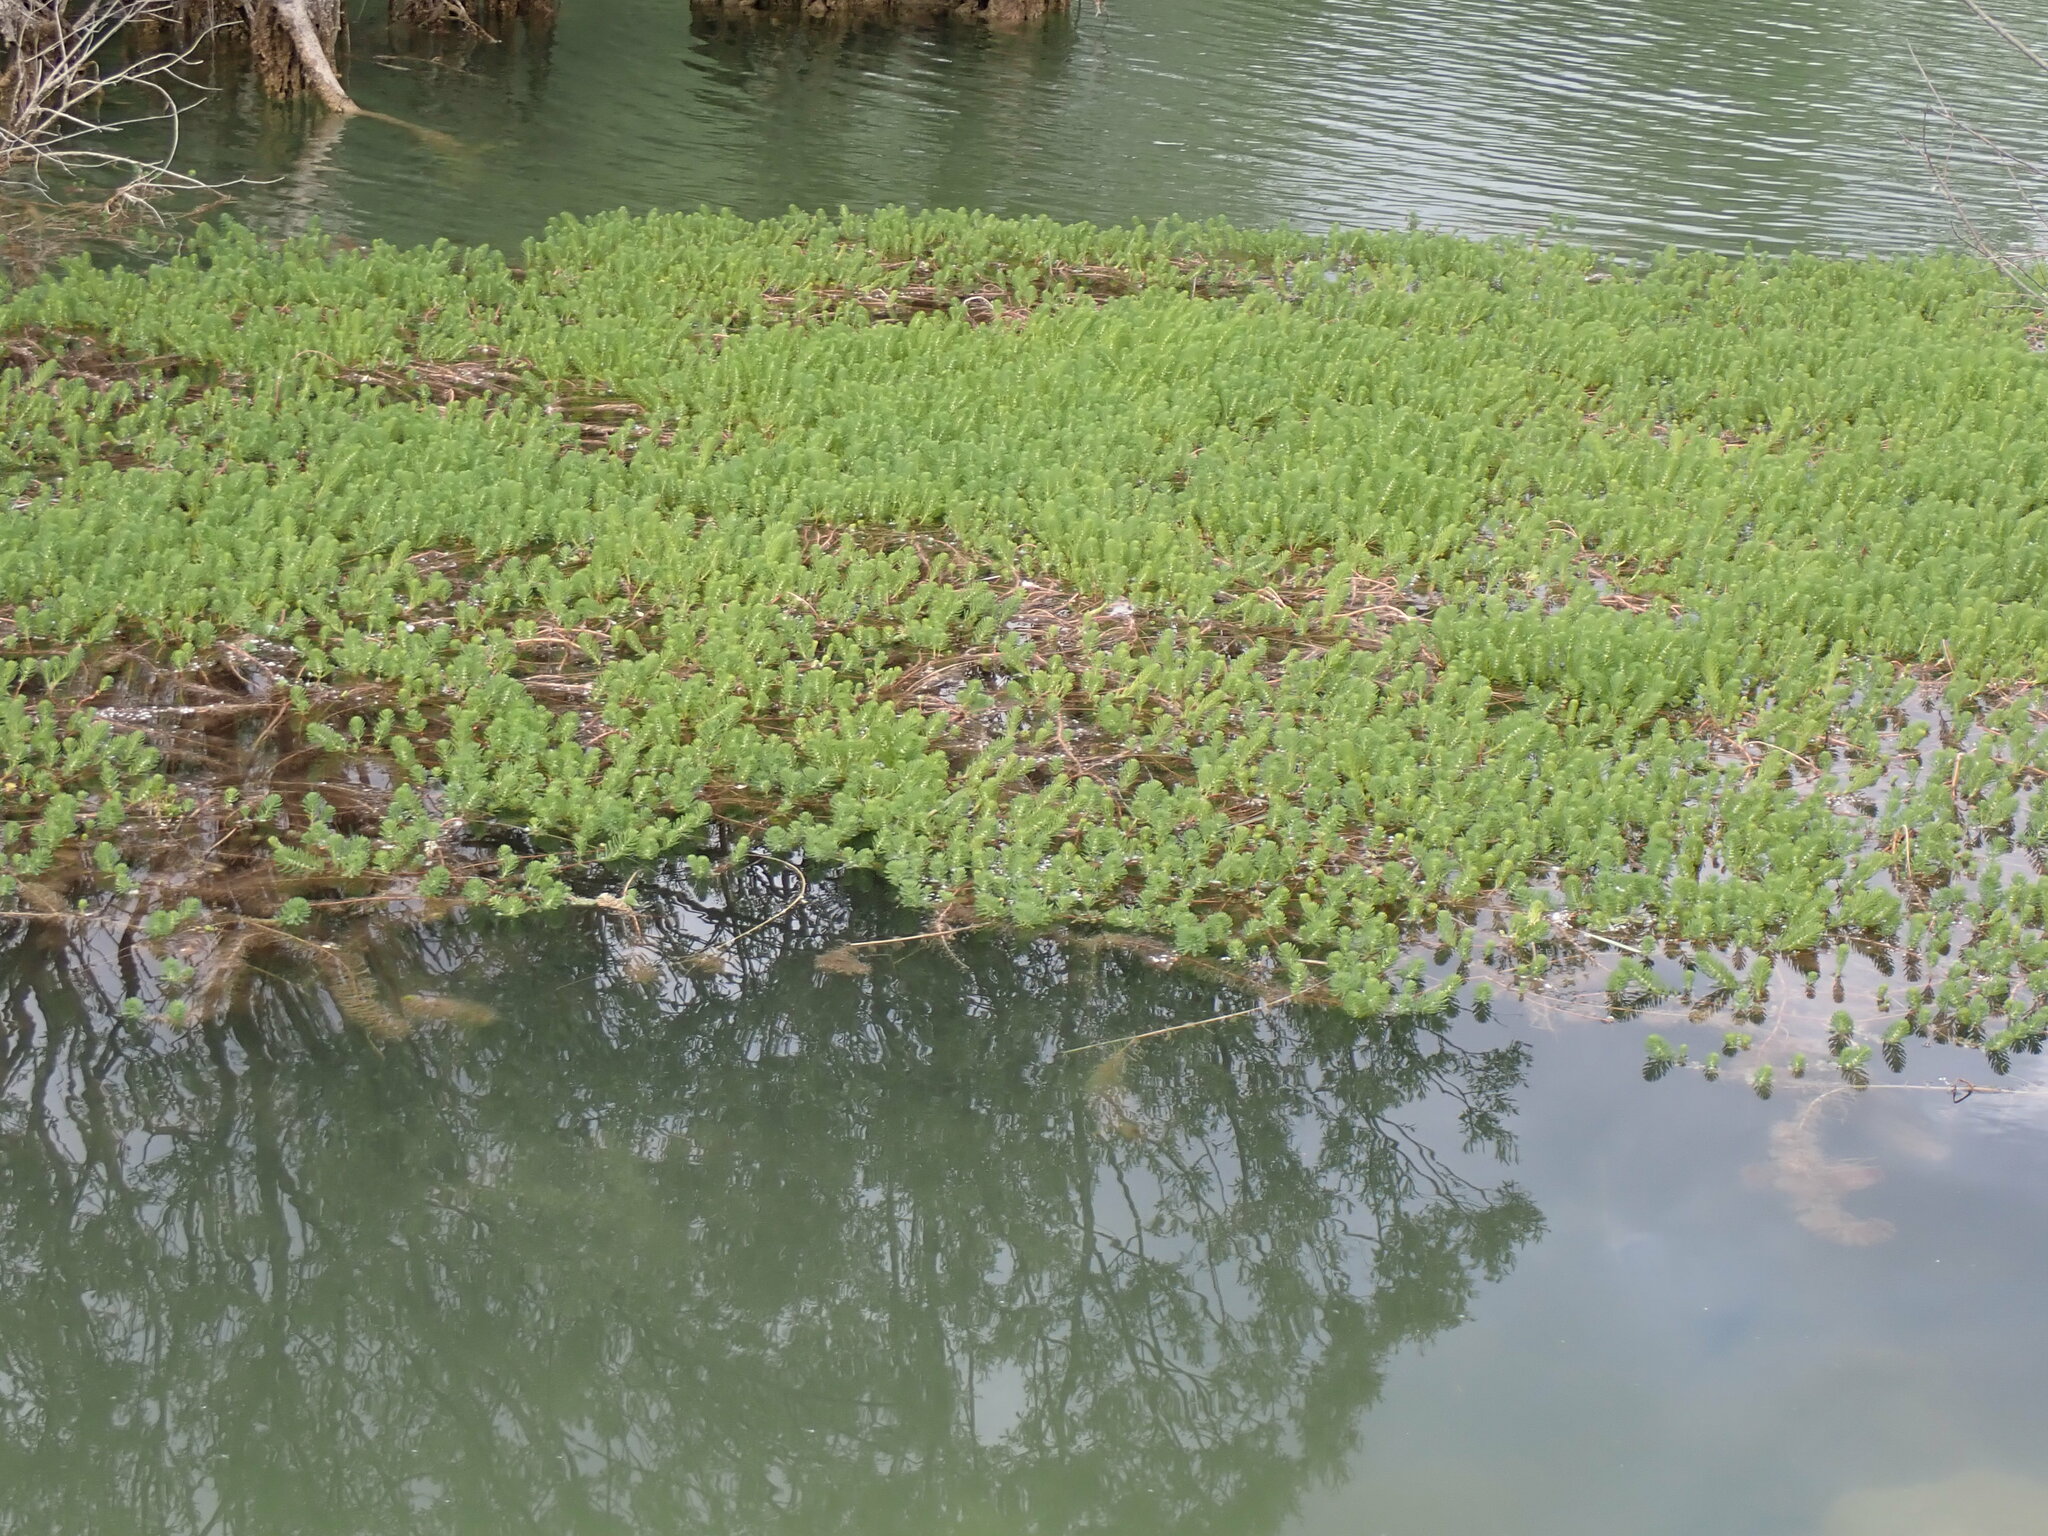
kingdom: Plantae
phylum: Tracheophyta
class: Magnoliopsida
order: Saxifragales
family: Haloragaceae
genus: Myriophyllum
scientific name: Myriophyllum aquaticum
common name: Parrot's feather
